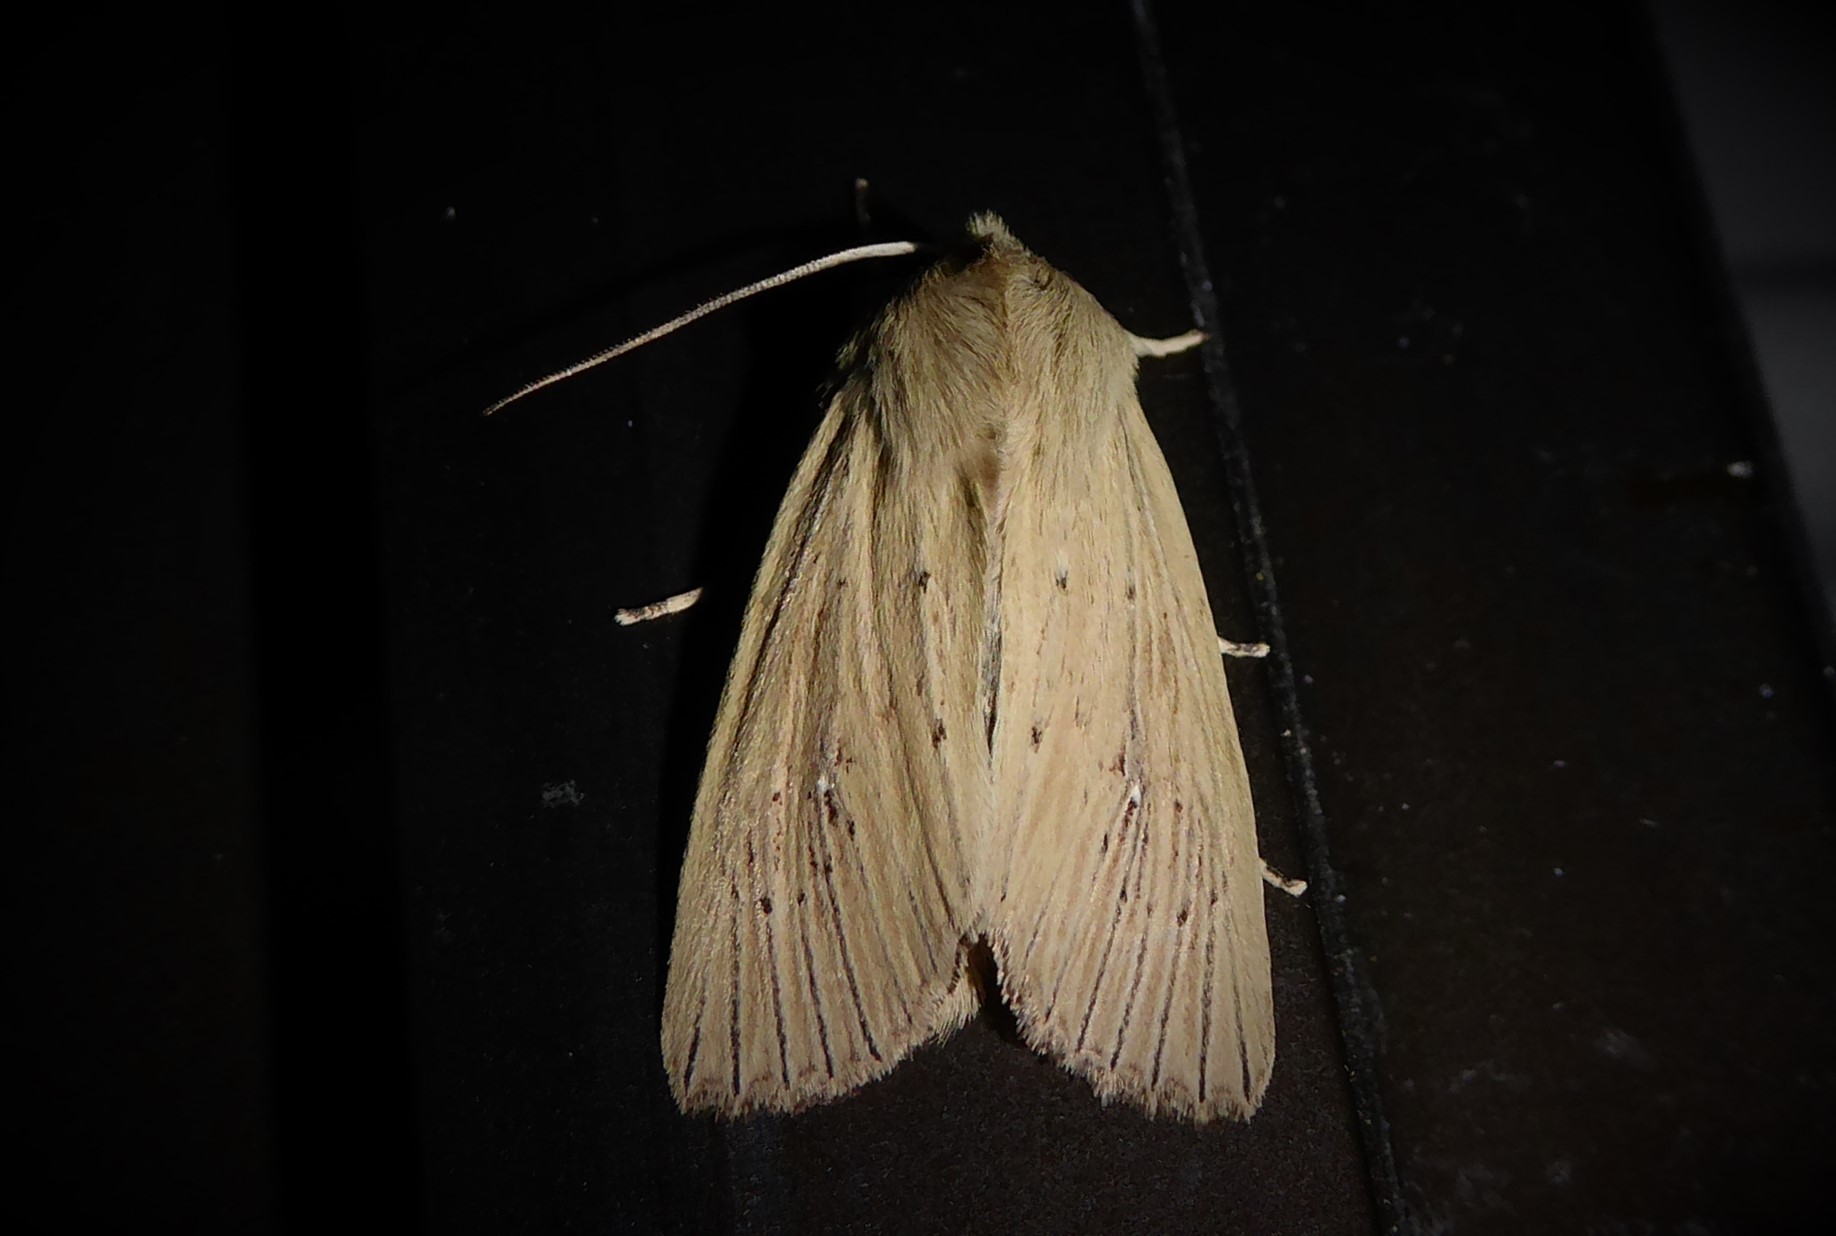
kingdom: Animalia
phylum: Arthropoda
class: Insecta
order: Lepidoptera
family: Noctuidae
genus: Ichneutica
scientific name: Ichneutica arotis
